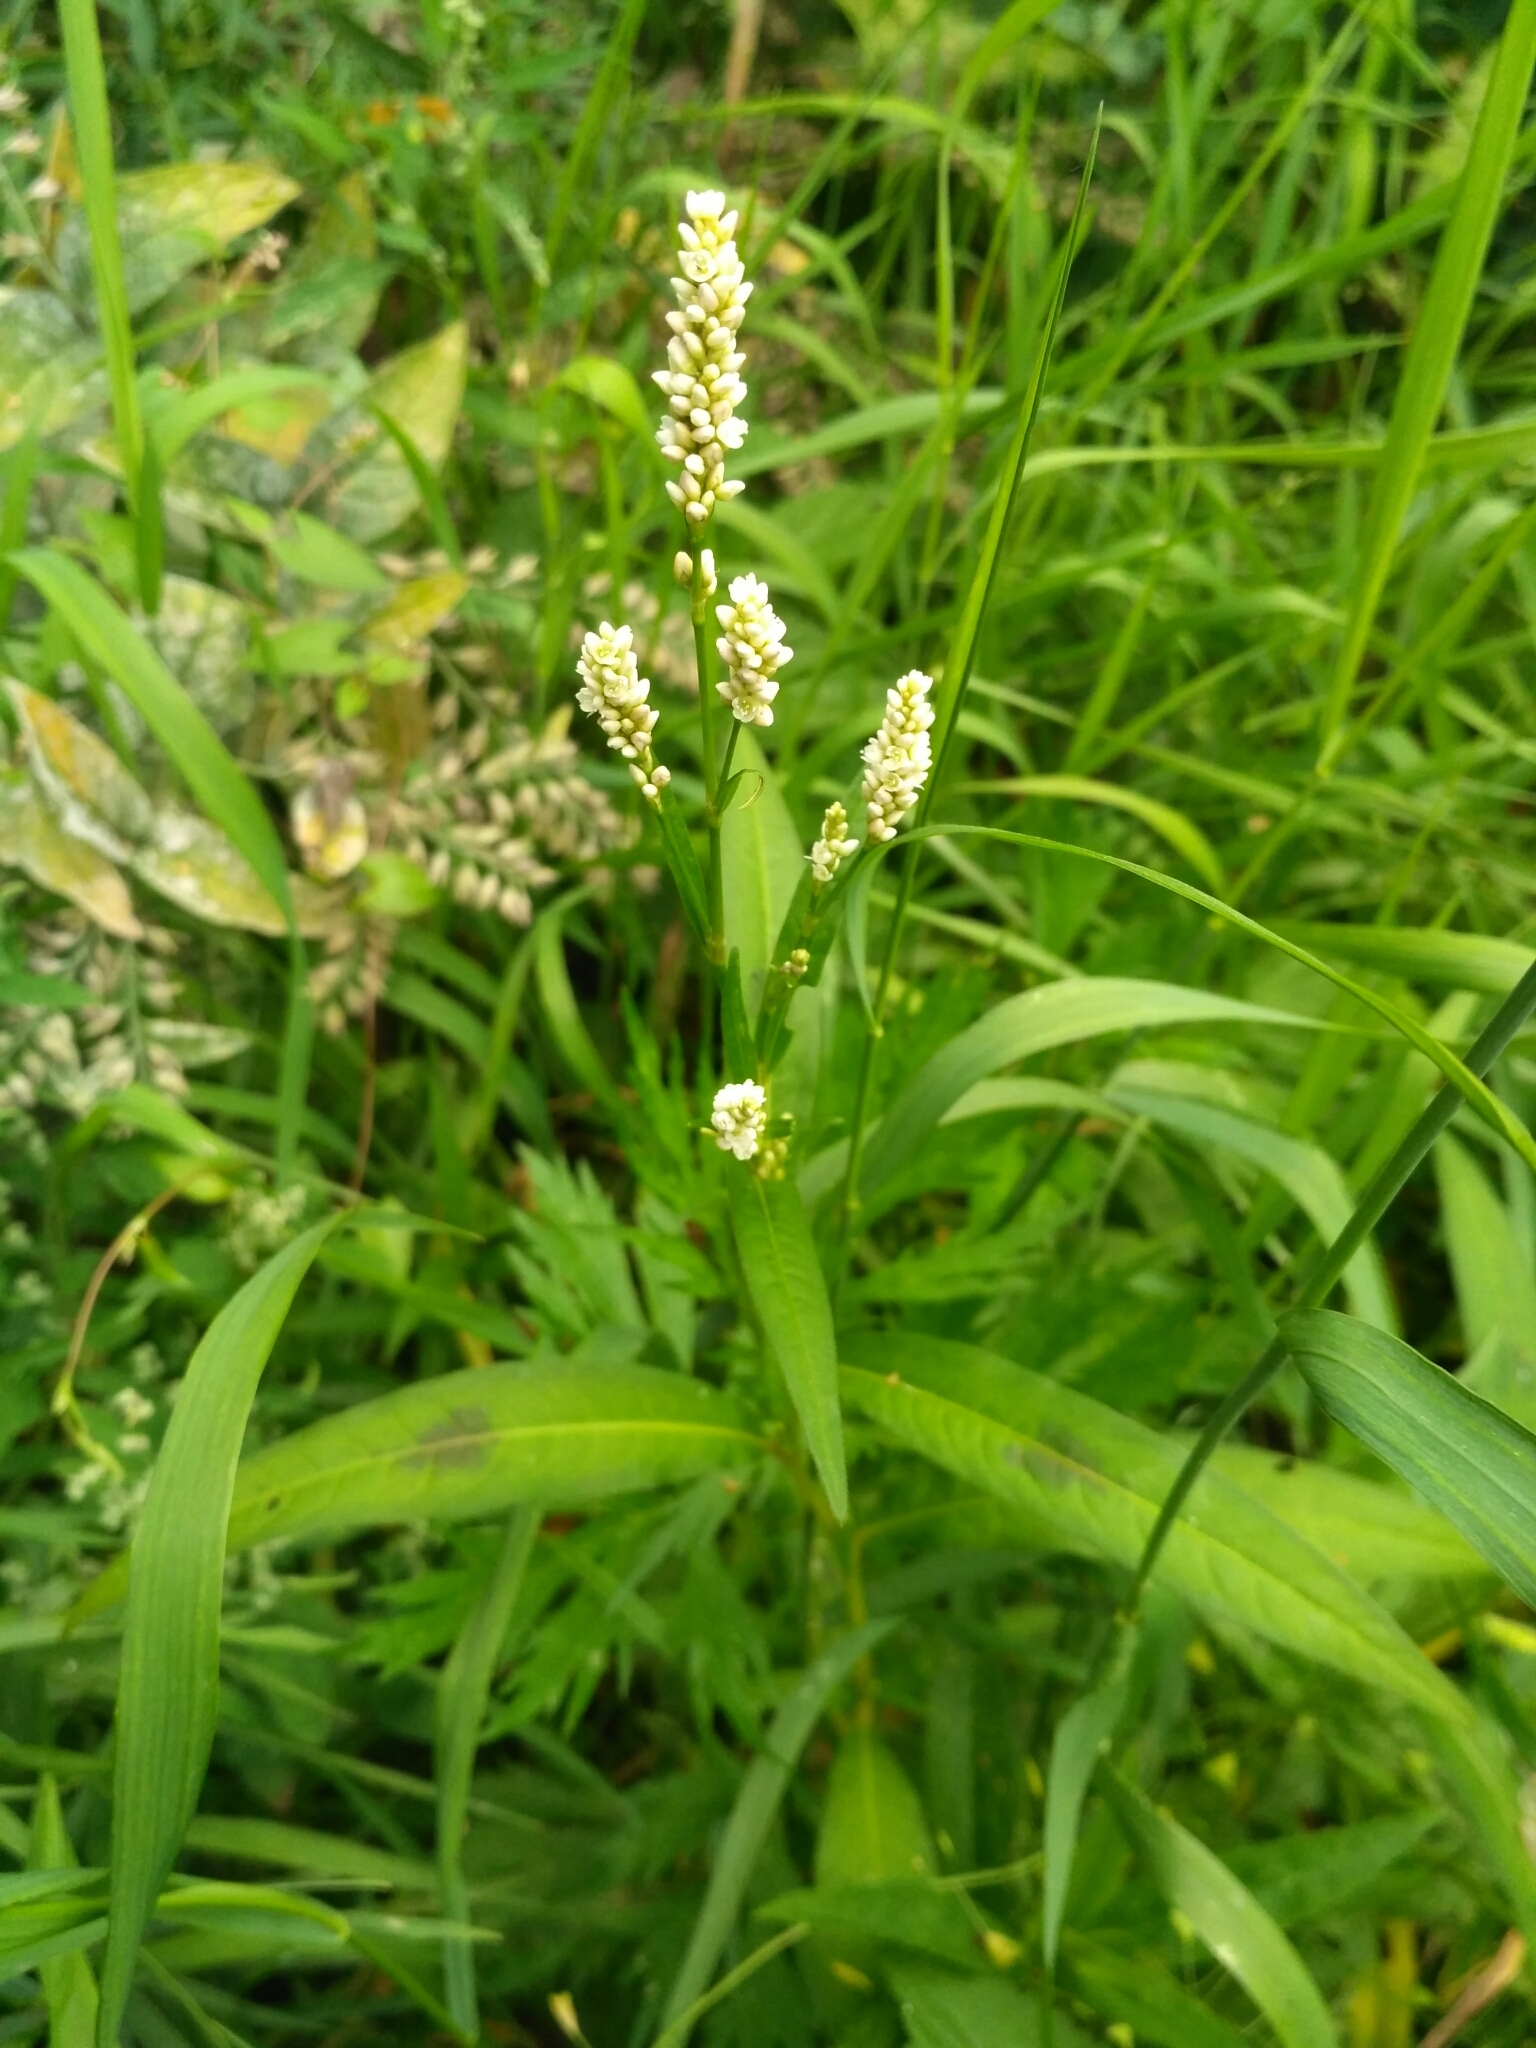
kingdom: Plantae
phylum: Tracheophyta
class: Magnoliopsida
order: Caryophyllales
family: Polygonaceae
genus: Persicaria
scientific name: Persicaria maculosa
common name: Redshank
